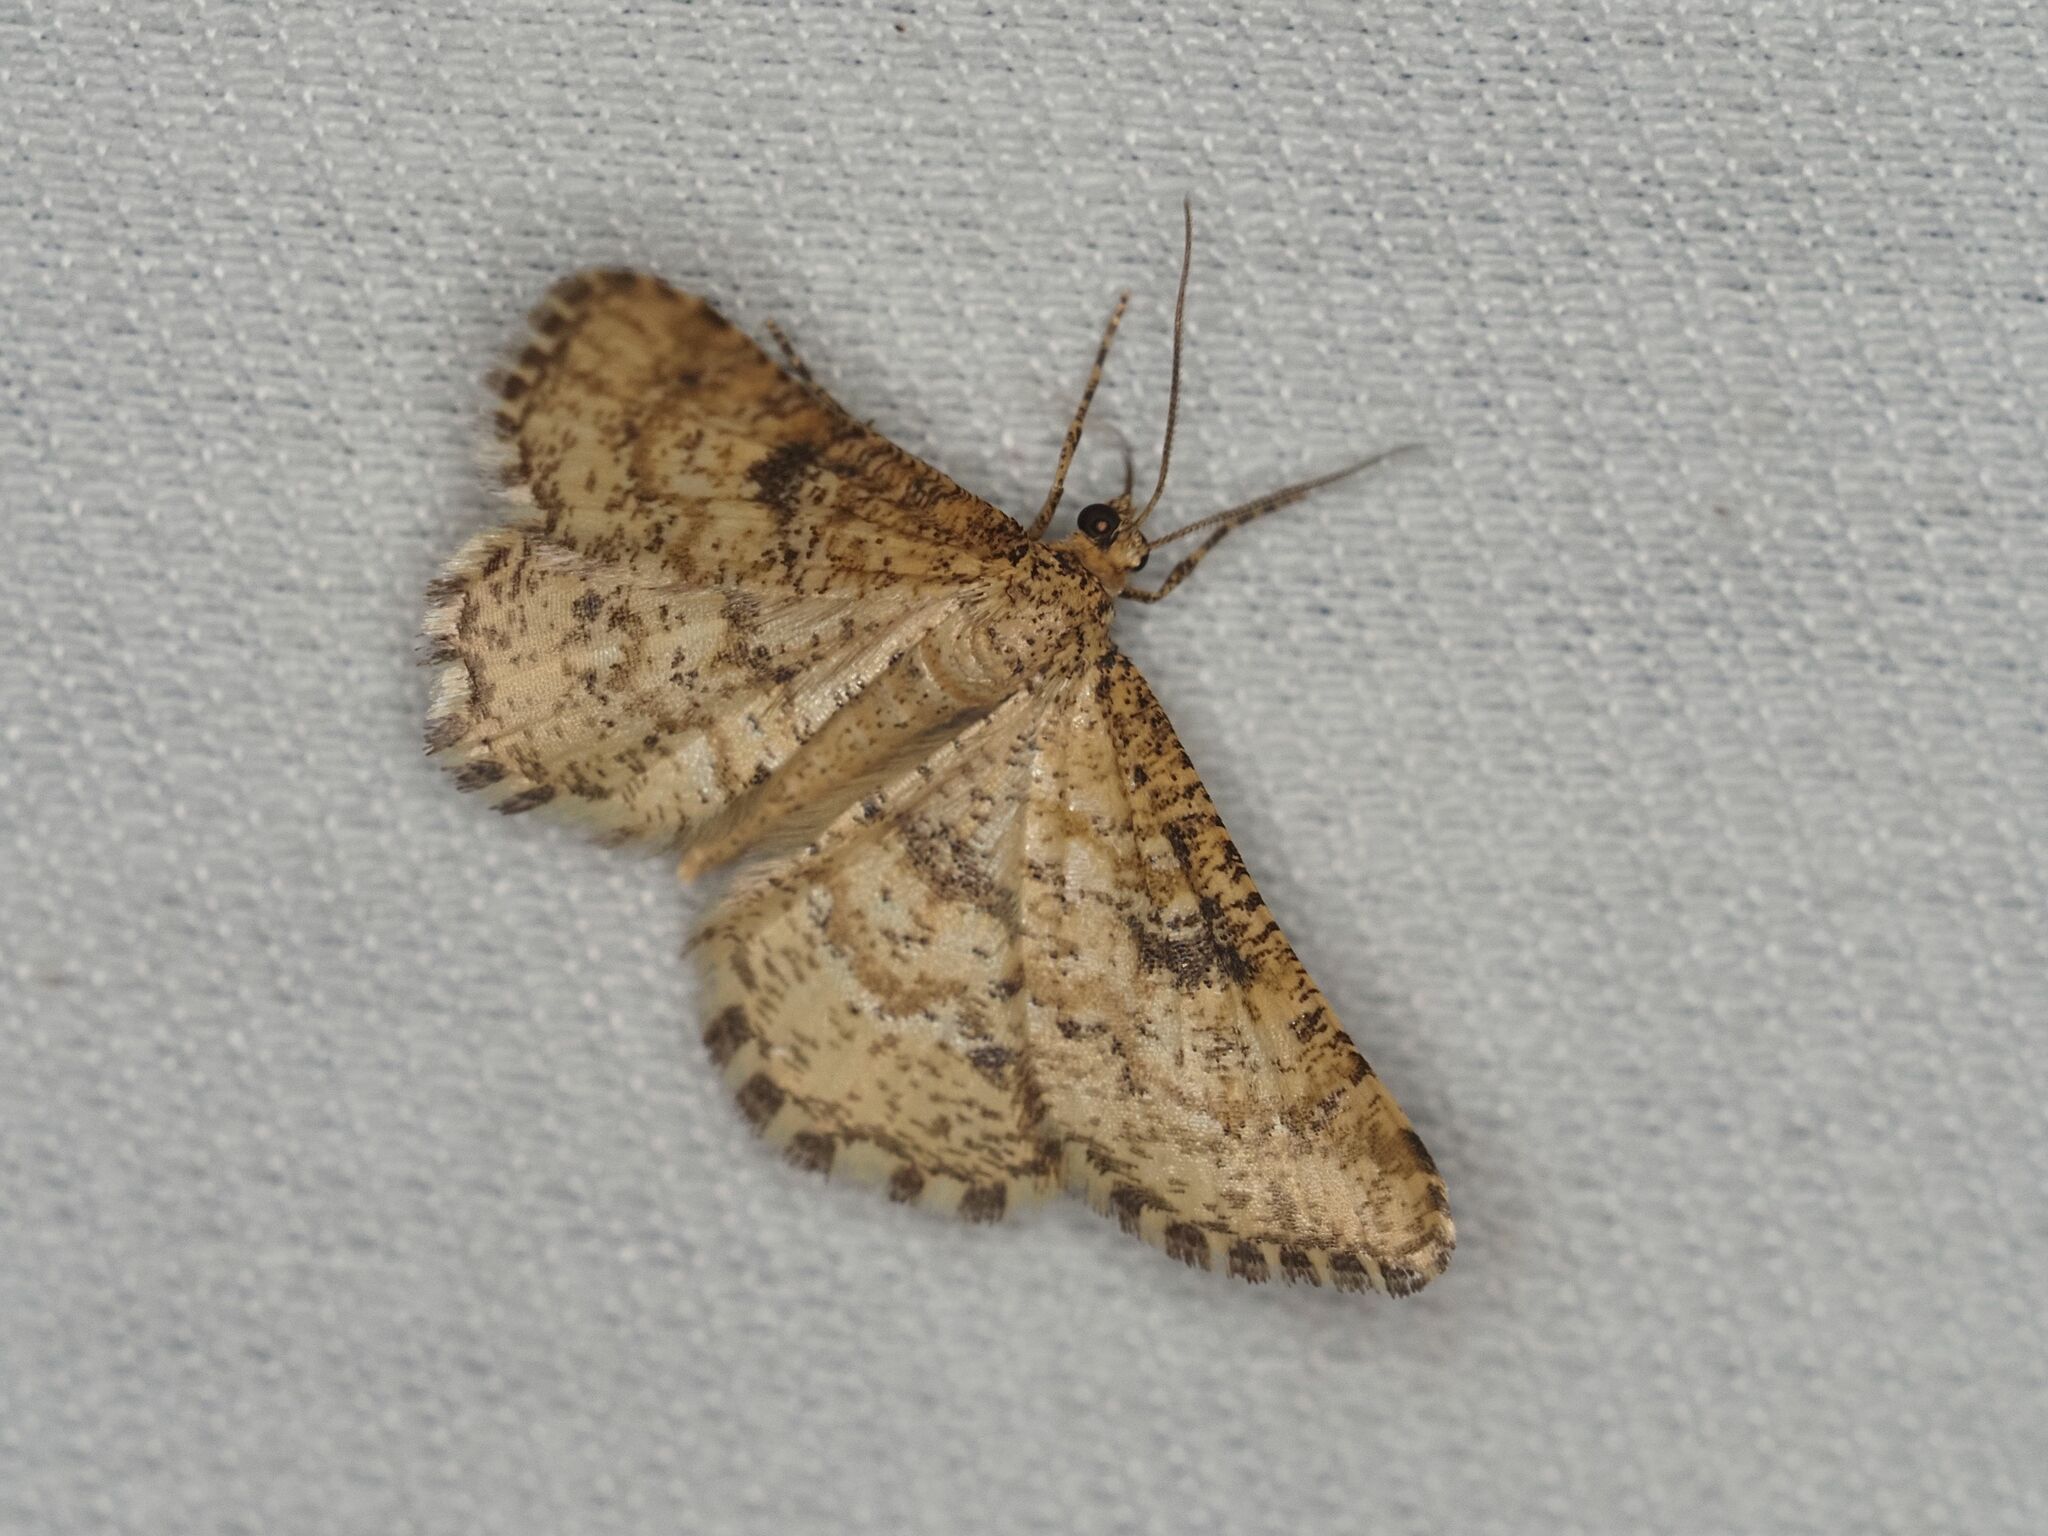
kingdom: Animalia
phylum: Arthropoda
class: Insecta
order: Lepidoptera
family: Geometridae
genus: Heliomata
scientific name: Heliomata glarearia
